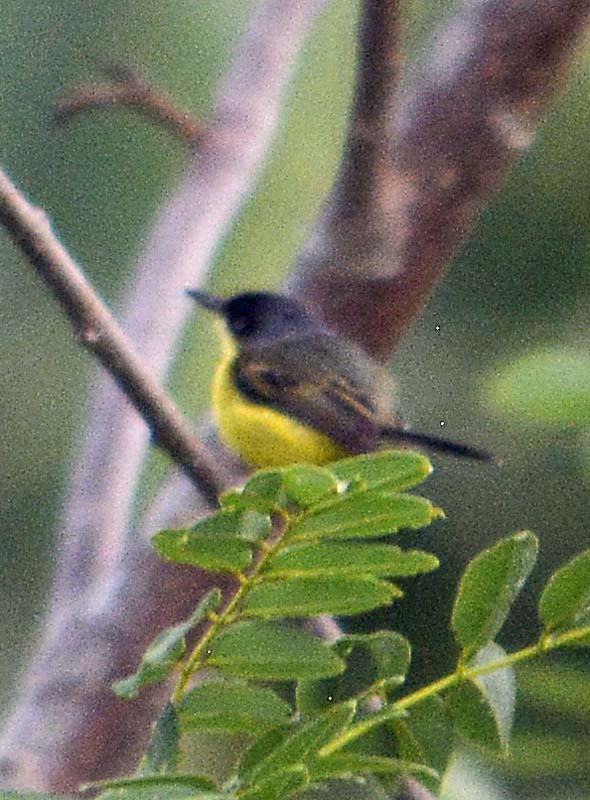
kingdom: Animalia
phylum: Chordata
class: Aves
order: Passeriformes
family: Tyrannidae
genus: Todirostrum
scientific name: Todirostrum cinereum
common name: Common tody-flycatcher
